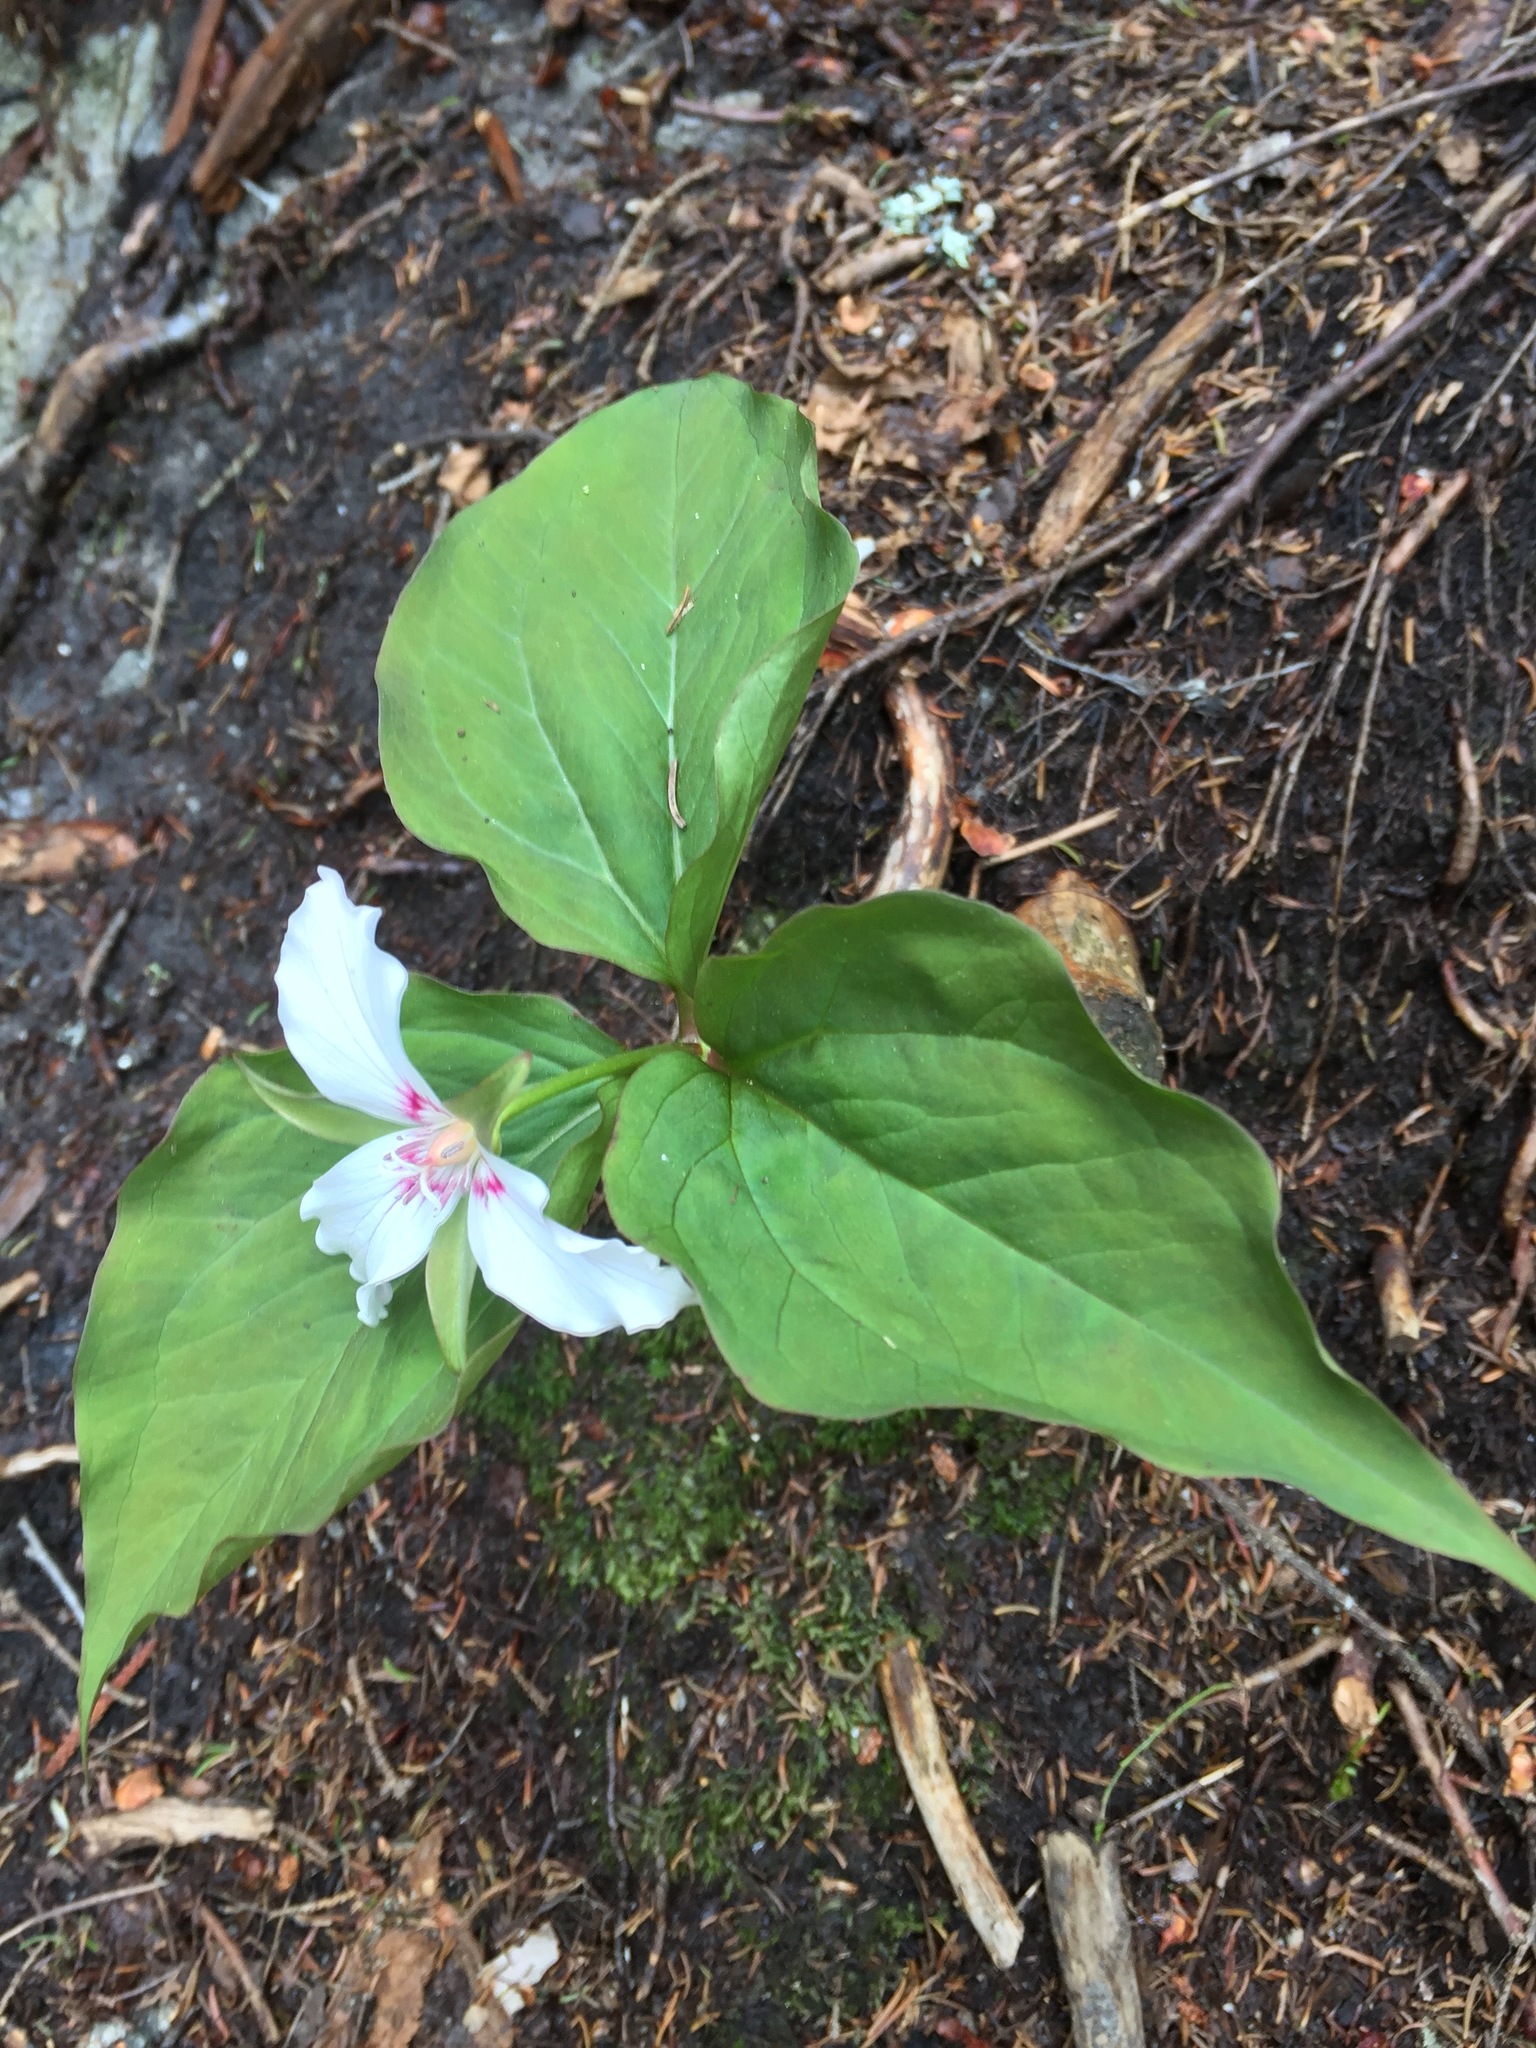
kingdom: Plantae
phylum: Tracheophyta
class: Liliopsida
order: Liliales
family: Melanthiaceae
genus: Trillium
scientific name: Trillium undulatum
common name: Paint trillium
